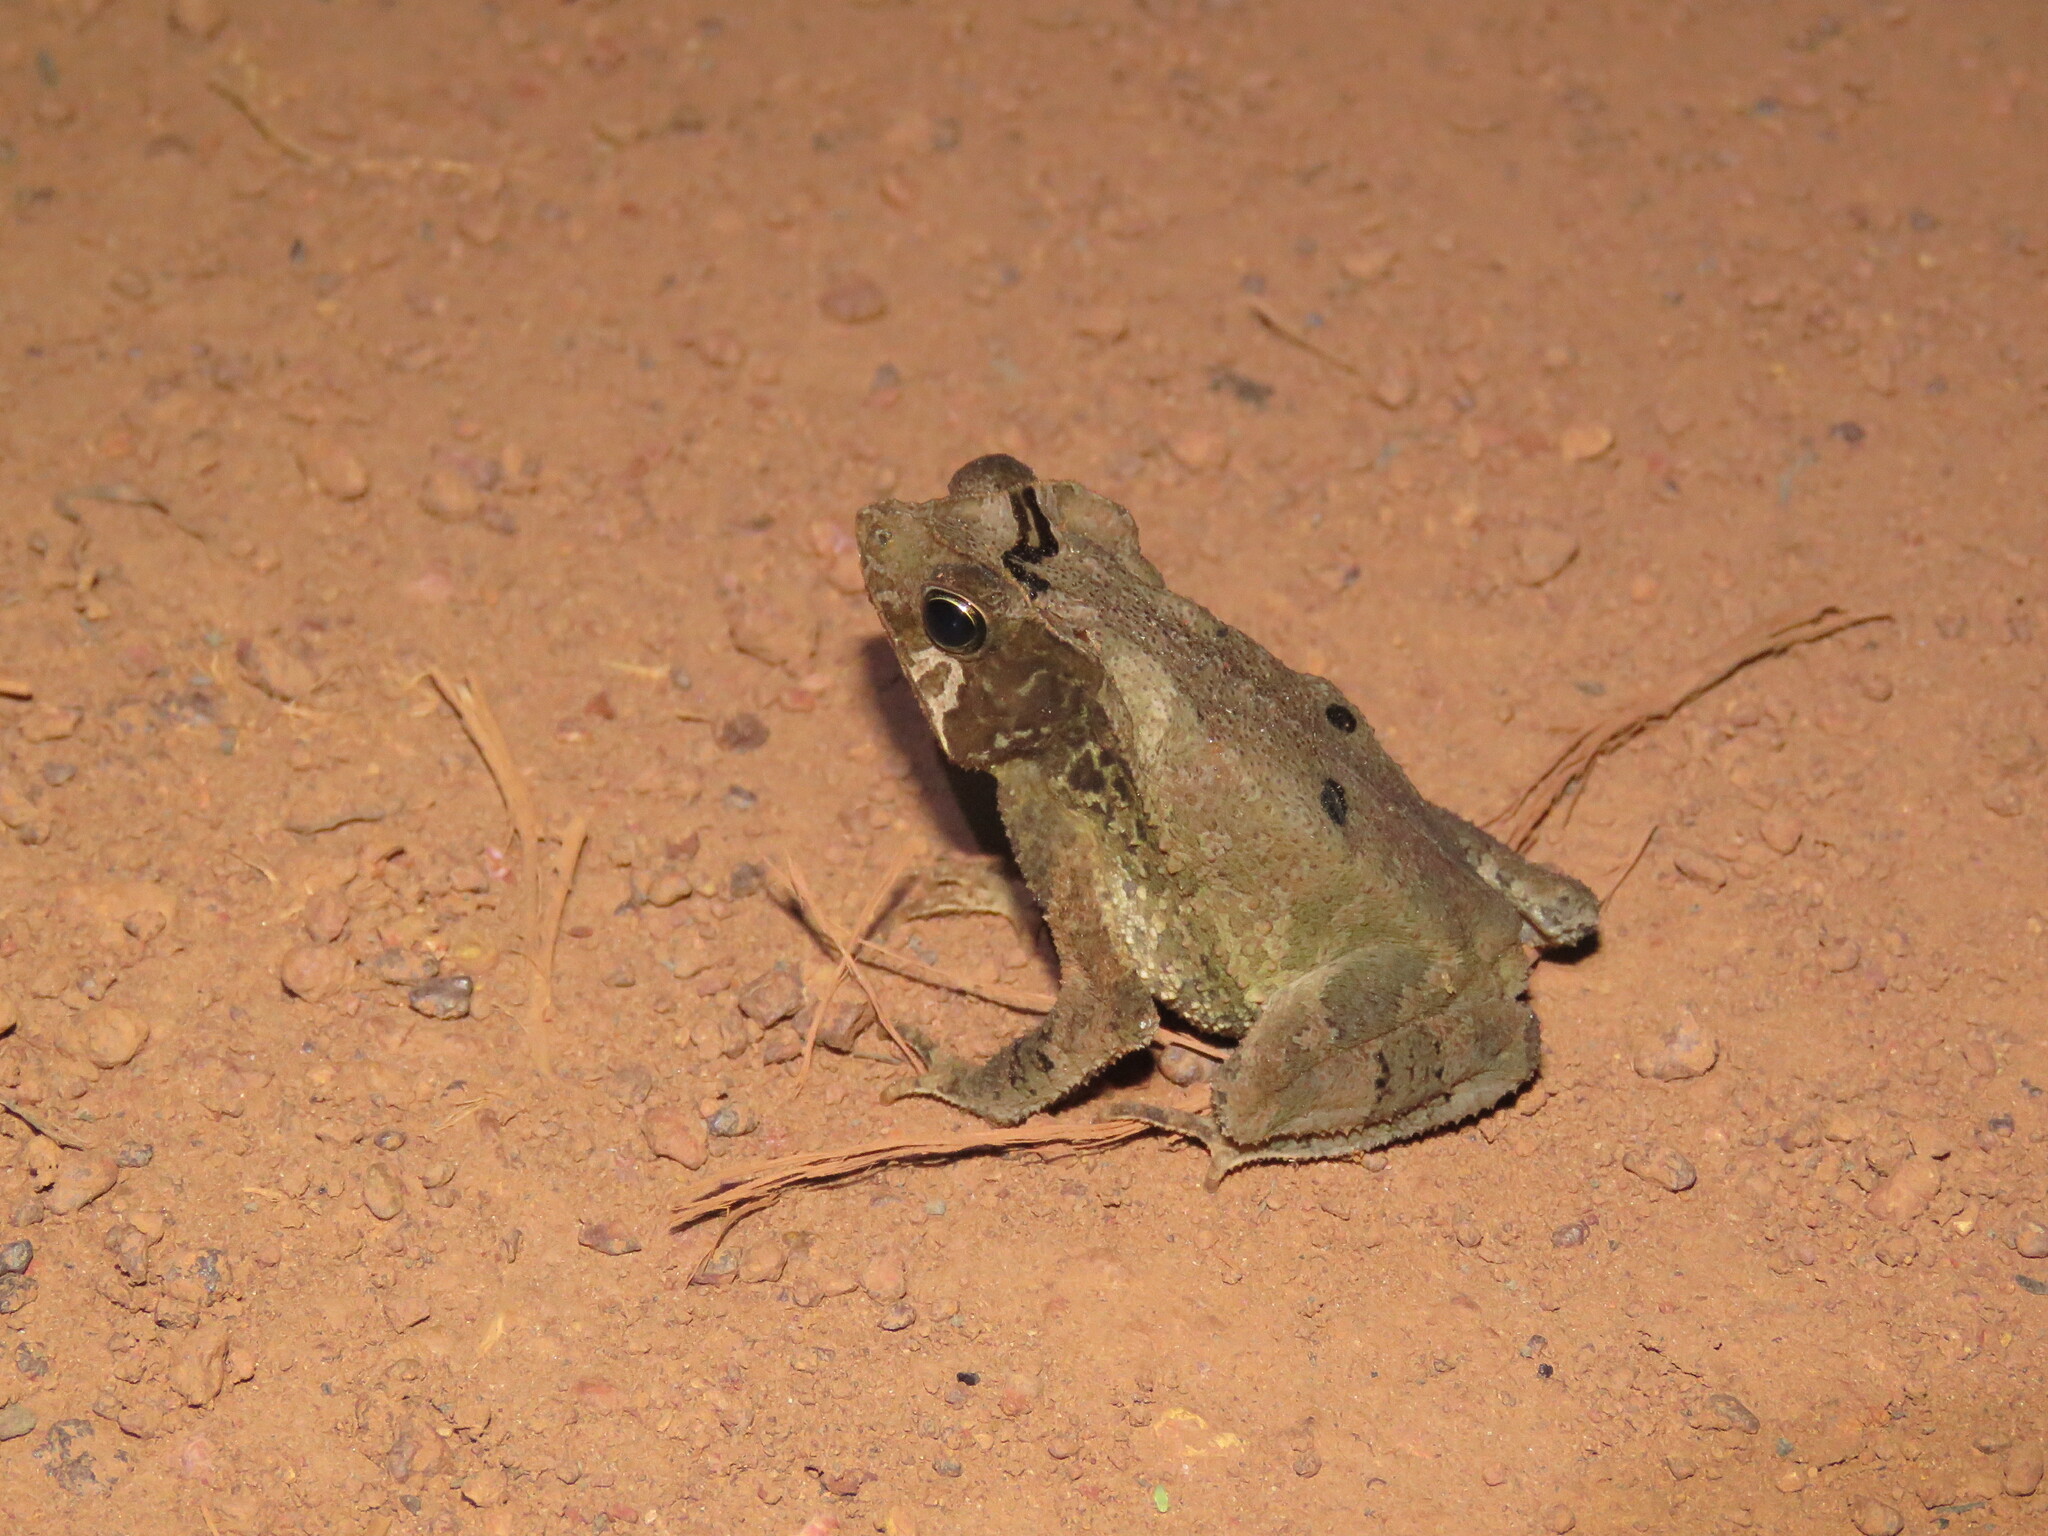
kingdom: Animalia
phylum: Chordata
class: Amphibia
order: Anura
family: Bufonidae
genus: Rhinella
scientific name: Rhinella exostosica
